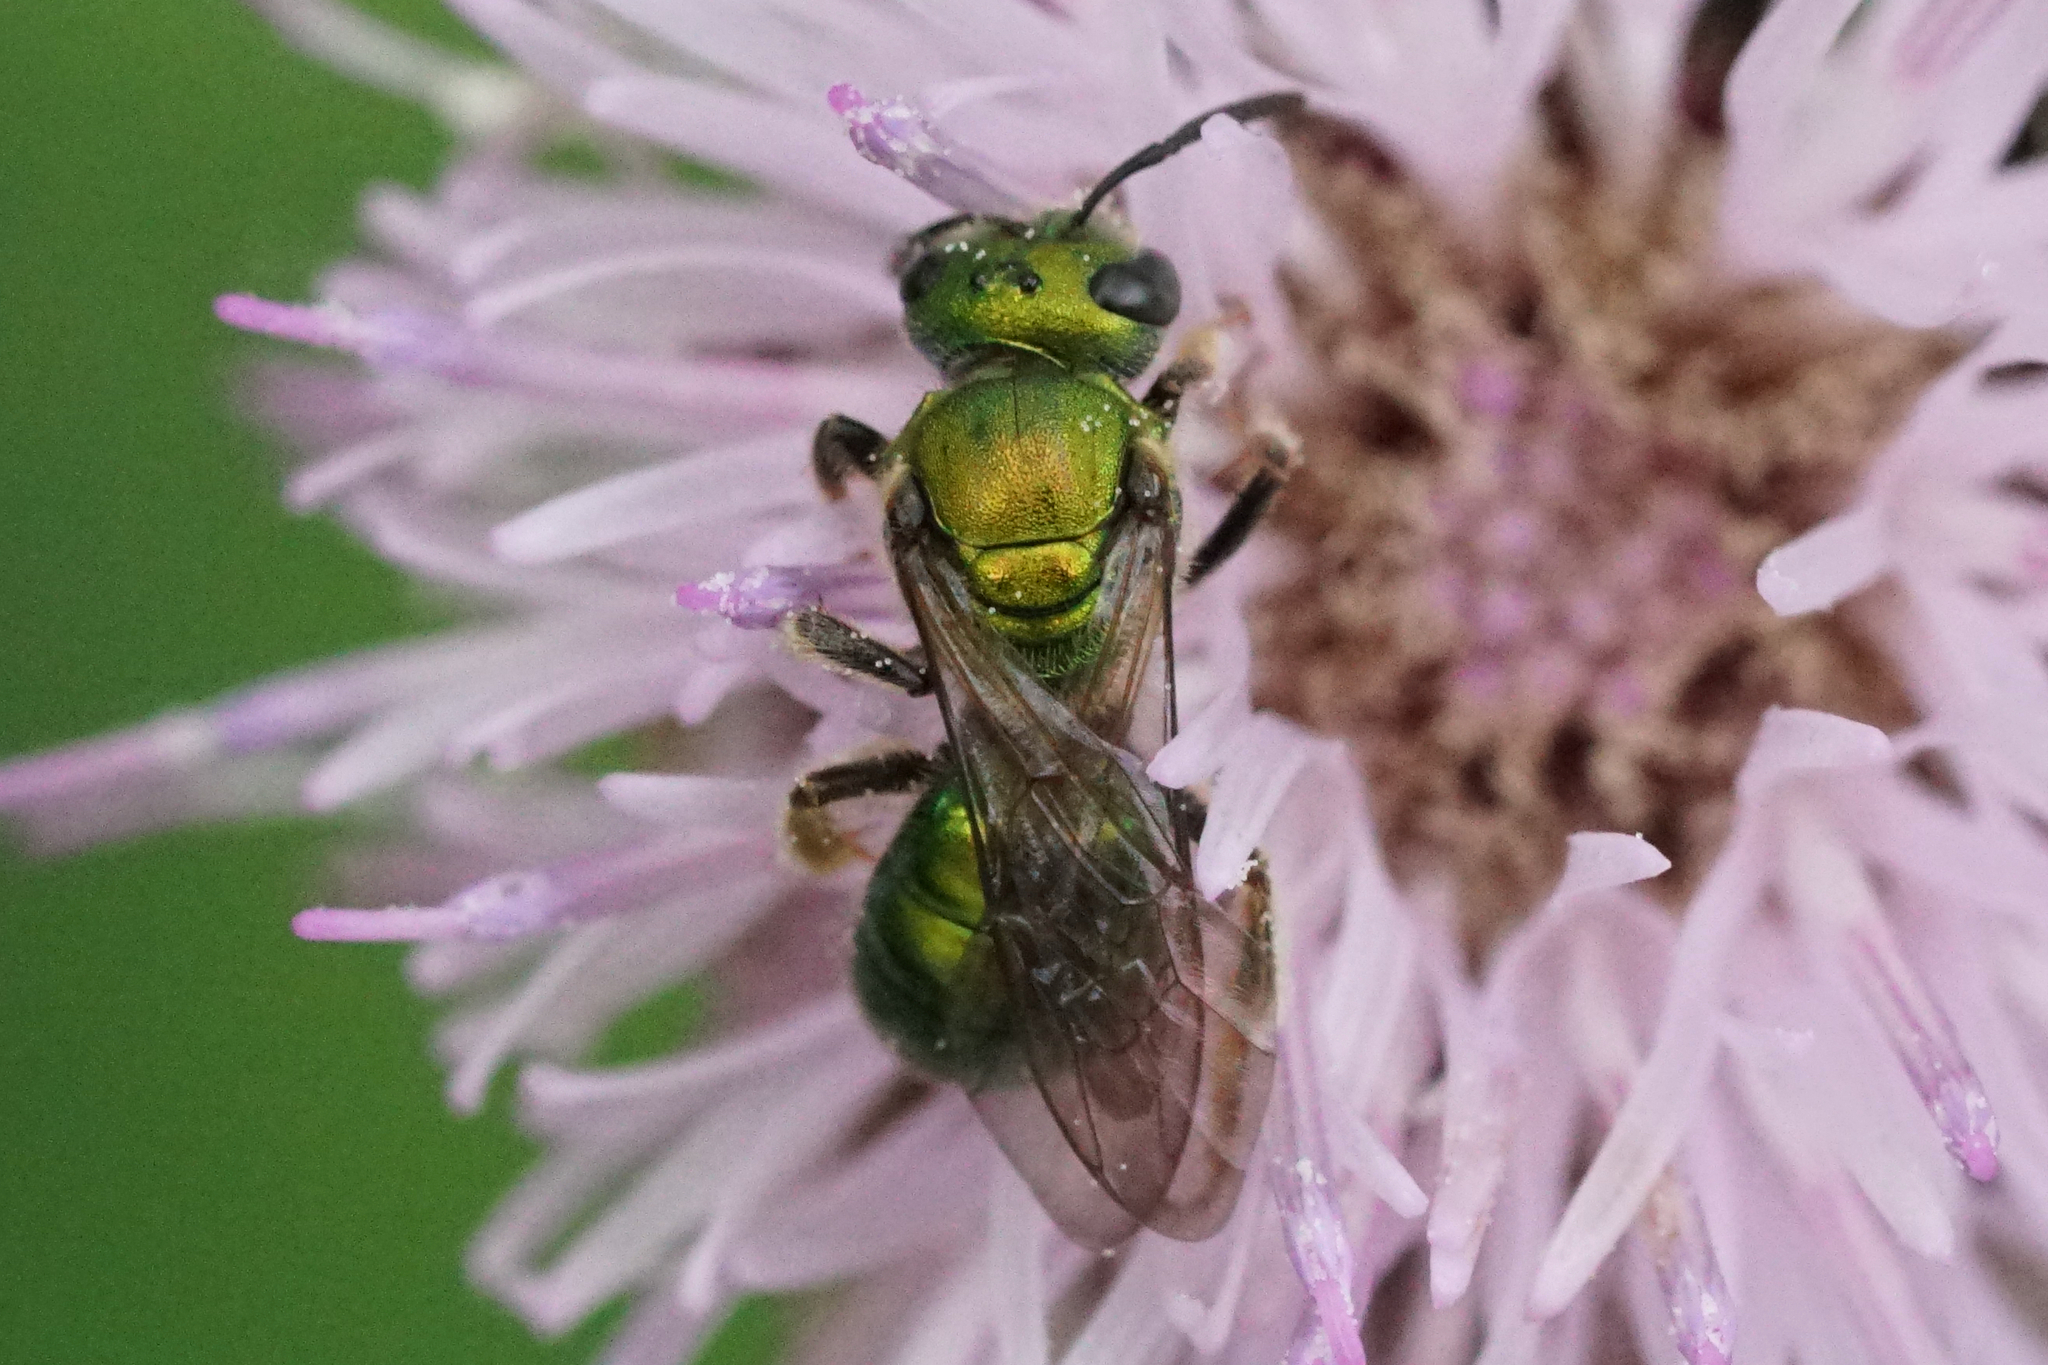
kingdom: Animalia
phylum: Arthropoda
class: Insecta
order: Hymenoptera
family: Halictidae
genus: Augochlora
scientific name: Augochlora pura
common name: Pure green sweat bee
